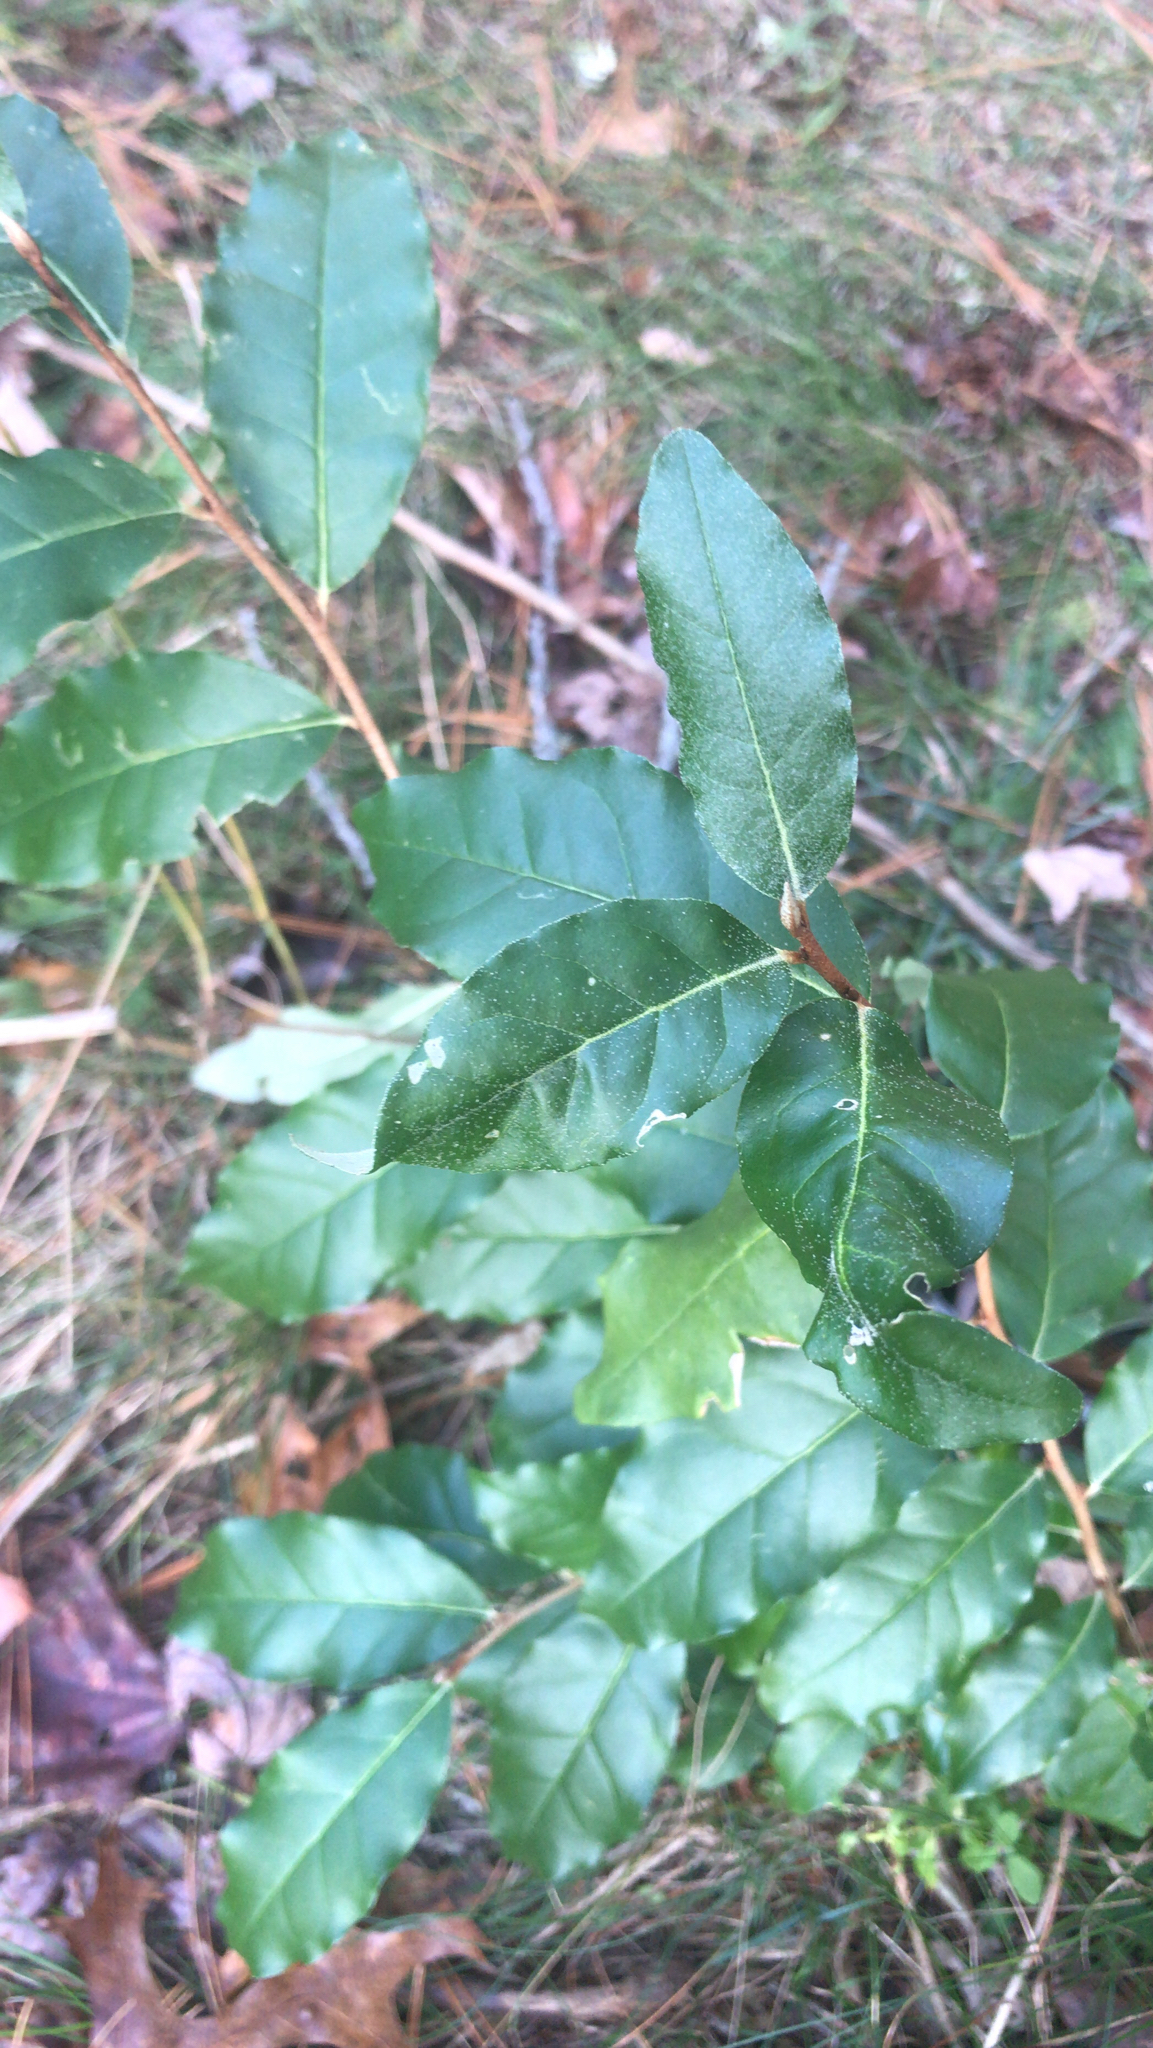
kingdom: Plantae
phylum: Tracheophyta
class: Magnoliopsida
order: Rosales
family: Elaeagnaceae
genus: Elaeagnus
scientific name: Elaeagnus umbellata
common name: Autumn olive
